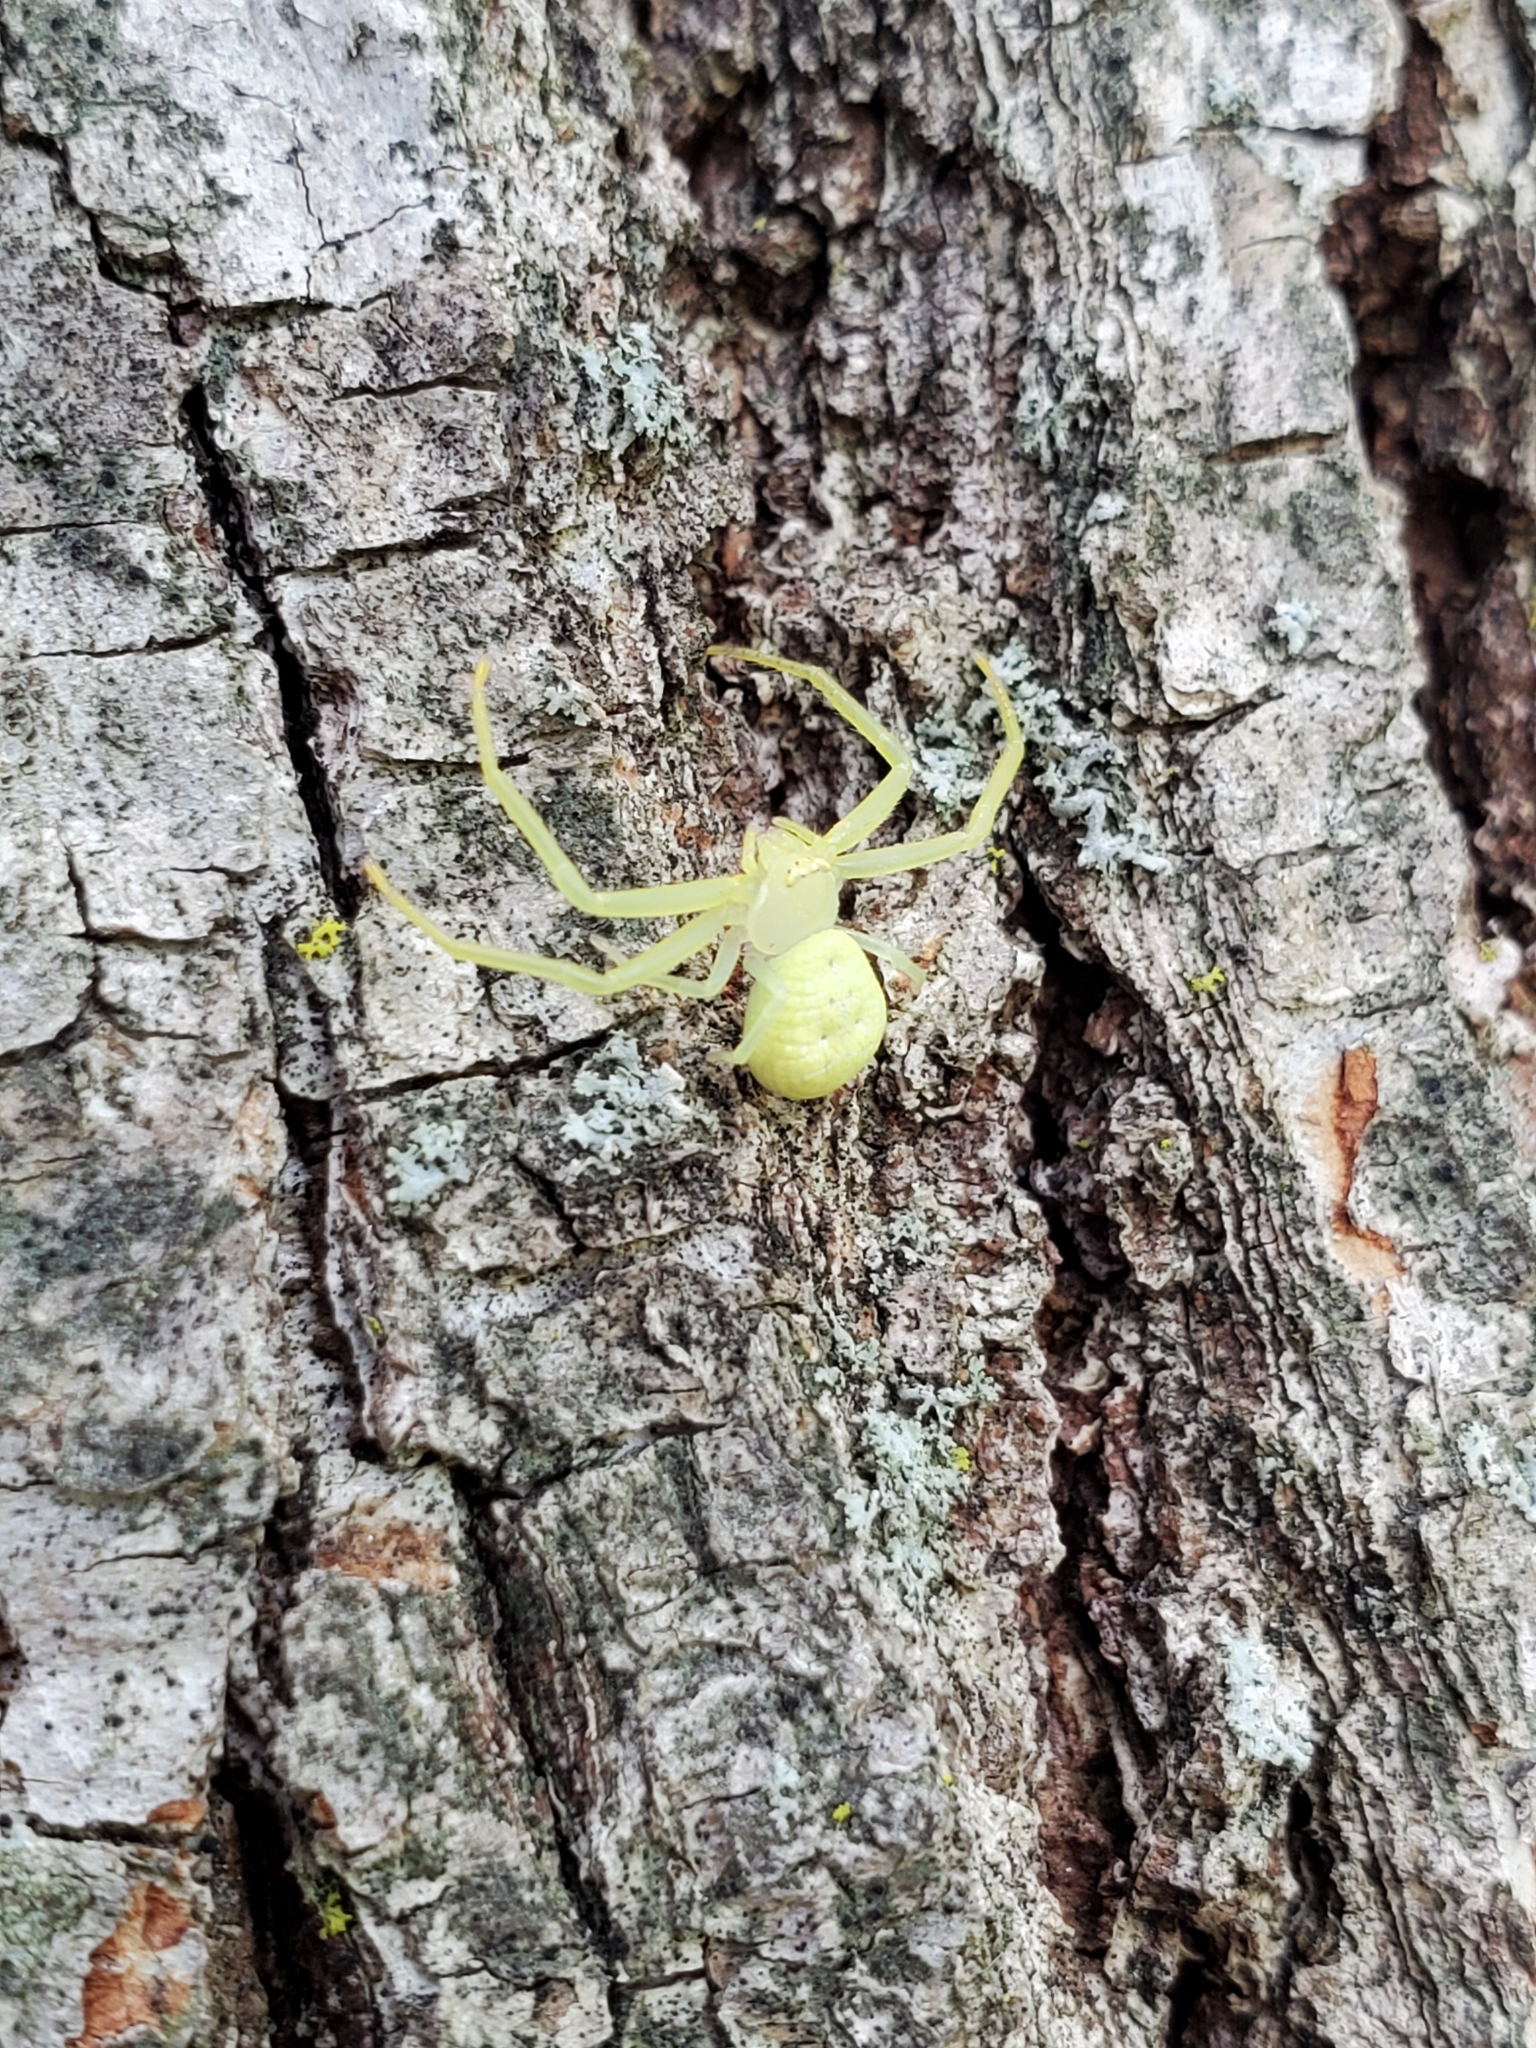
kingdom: Animalia
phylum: Arthropoda
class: Arachnida
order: Araneae
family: Thomisidae
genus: Misumessus
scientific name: Misumessus oblongus
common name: American green crab spider
